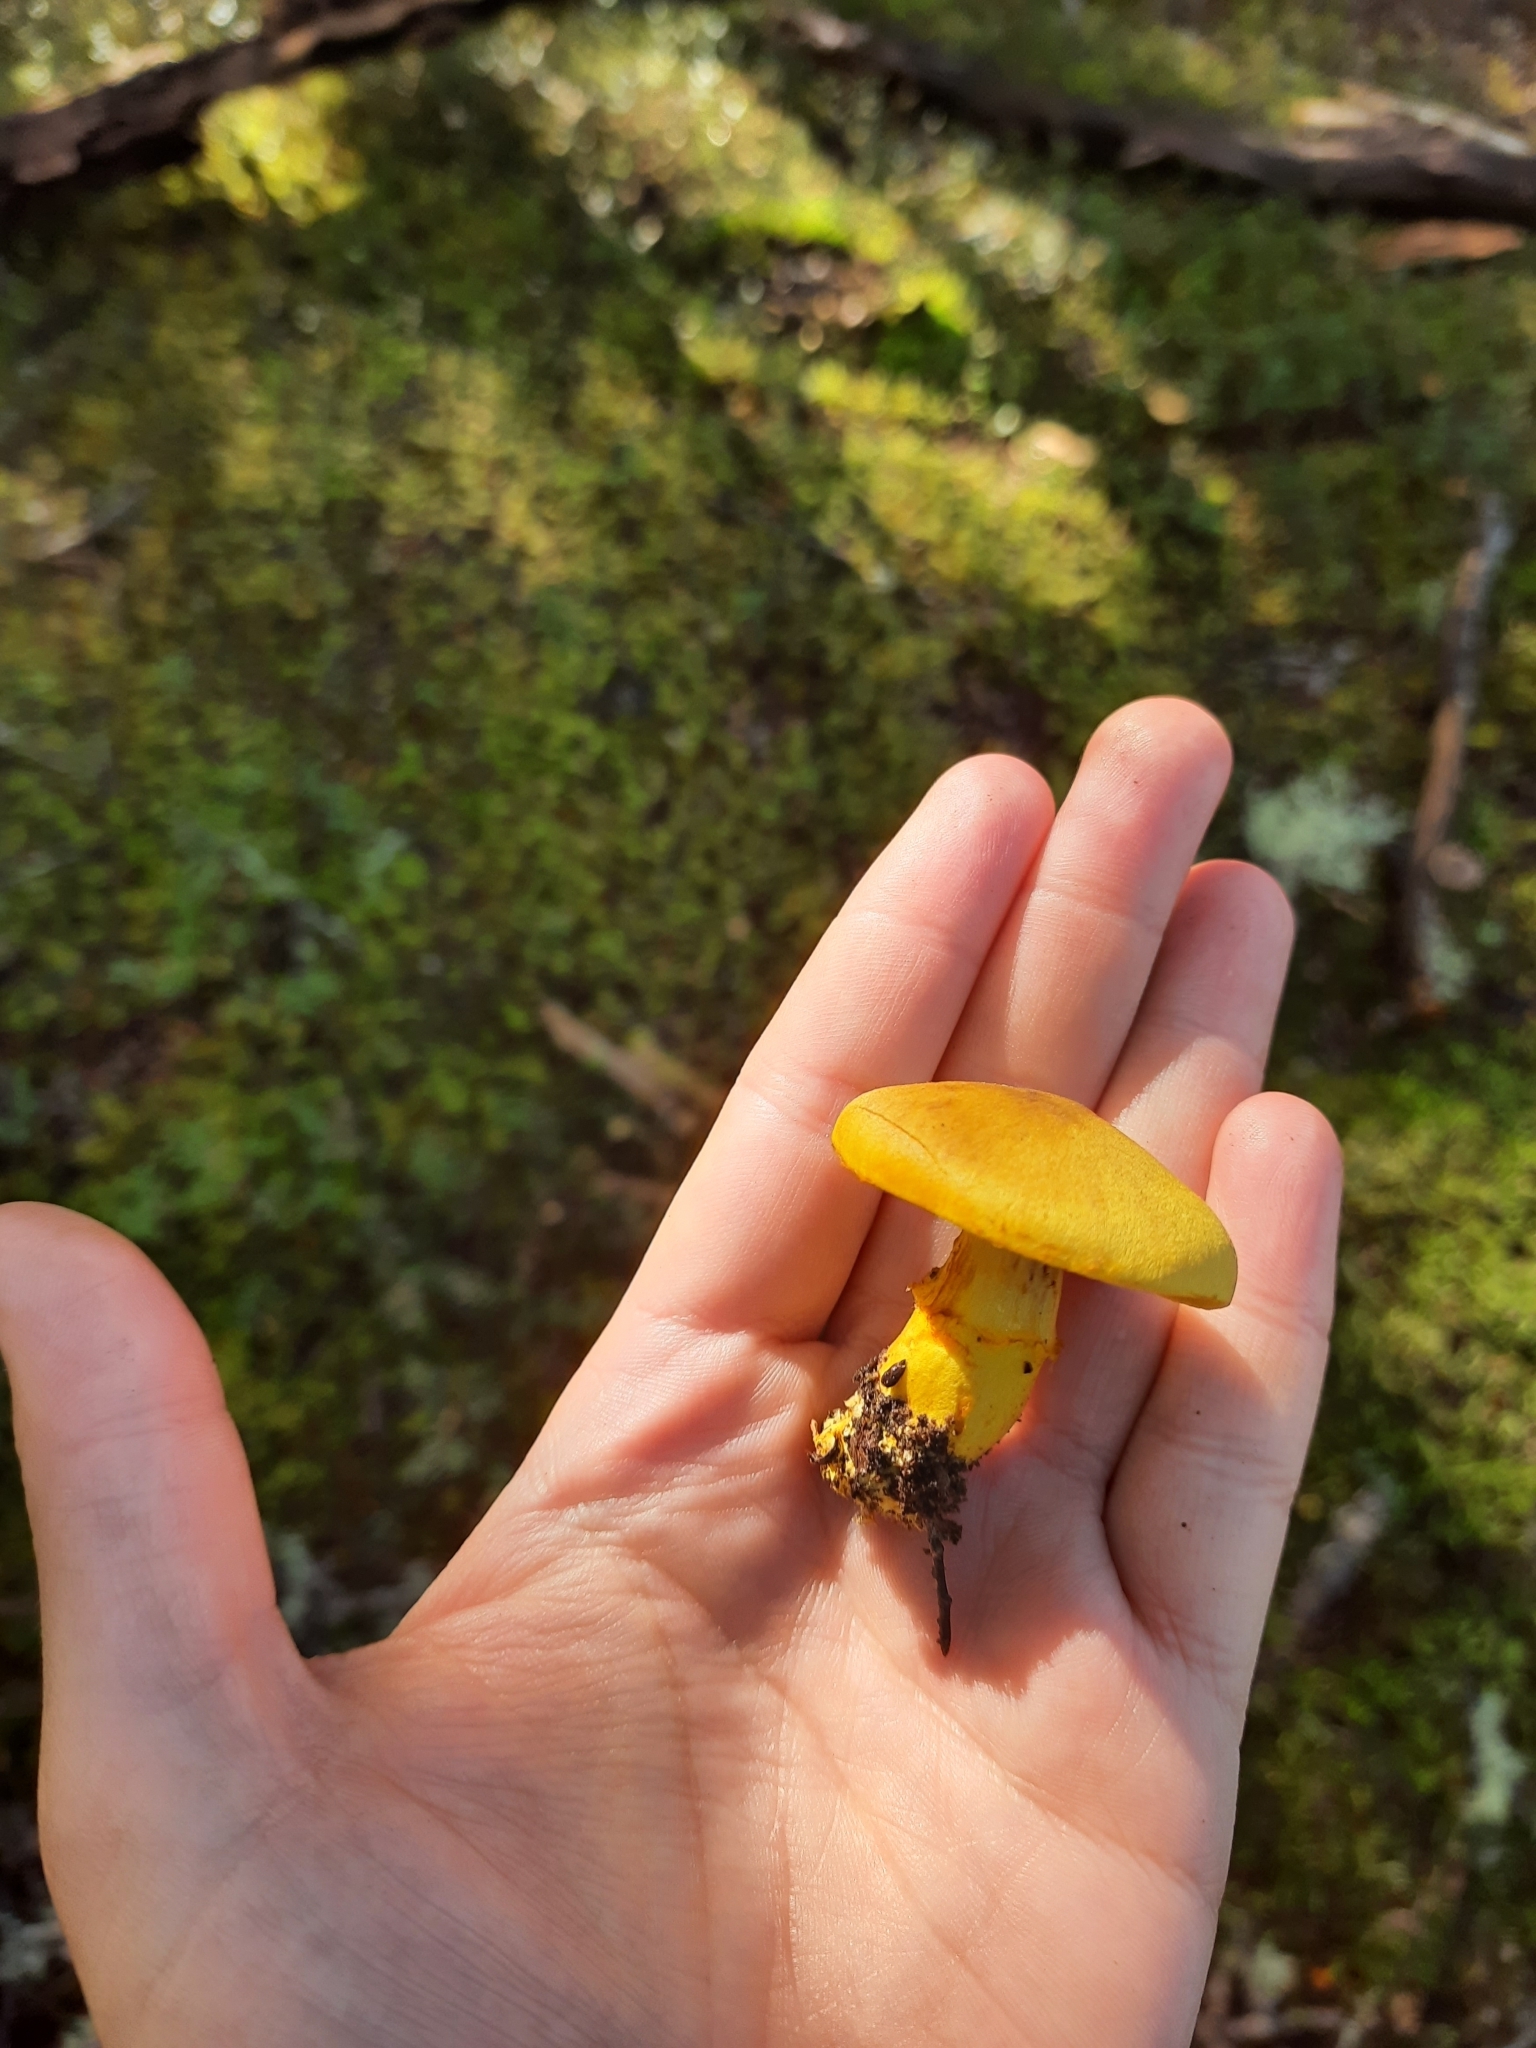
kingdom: Fungi
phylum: Basidiomycota
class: Agaricomycetes
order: Agaricales
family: Cortinariaceae
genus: Cortinarius
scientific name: Cortinarius canarius
